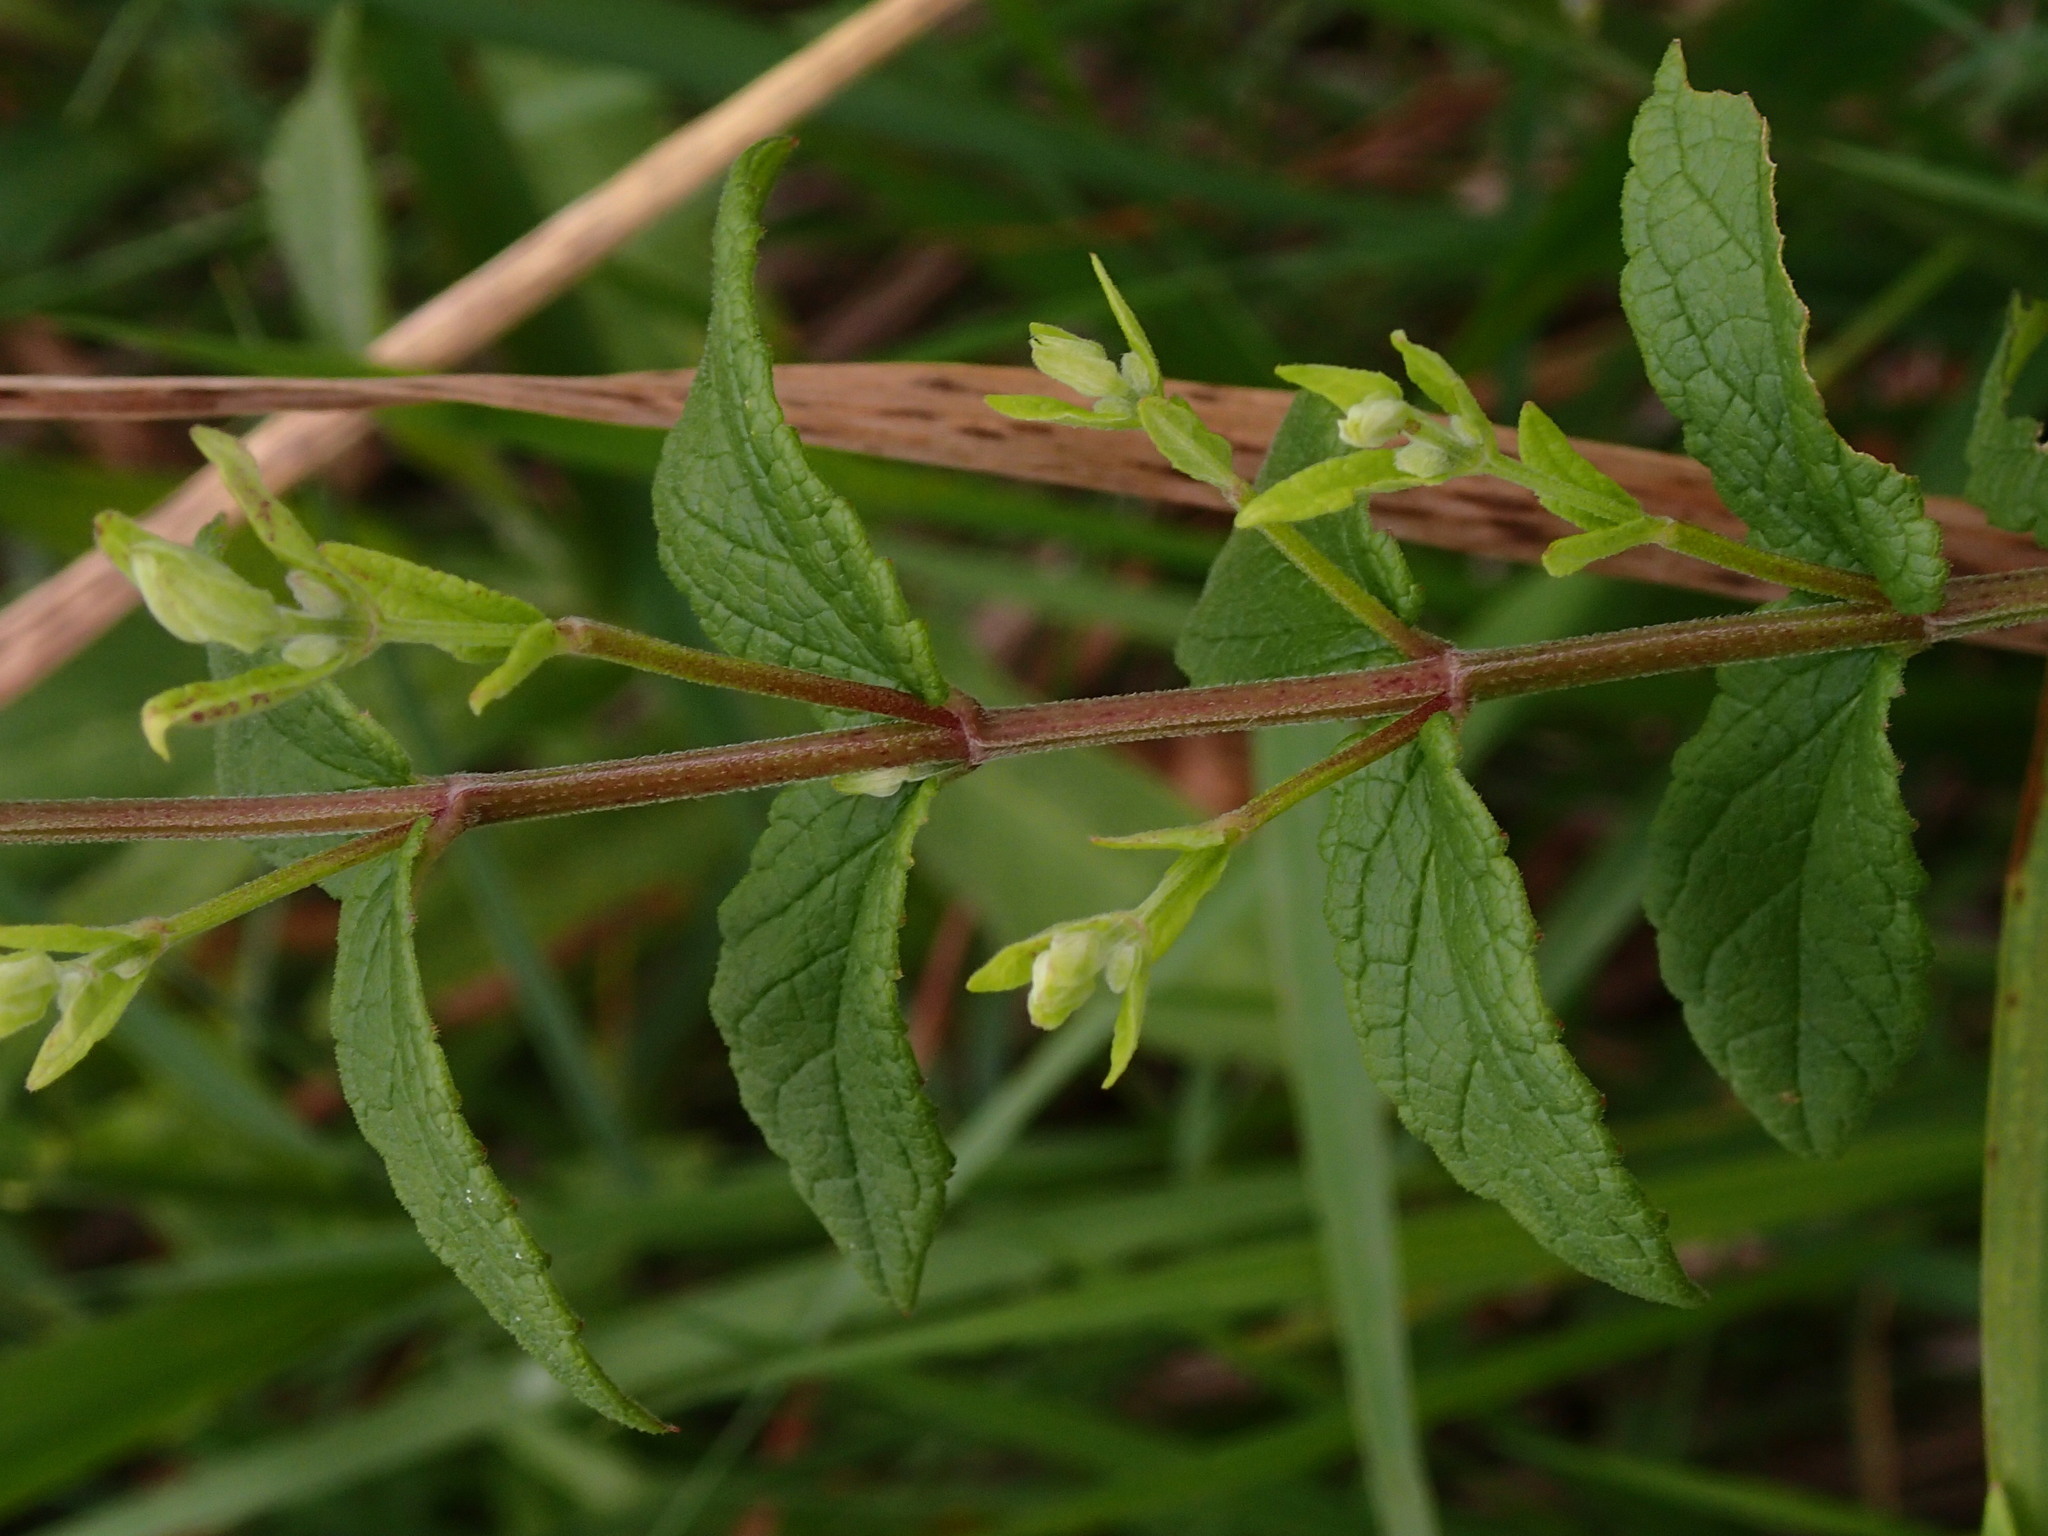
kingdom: Plantae
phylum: Tracheophyta
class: Magnoliopsida
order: Lamiales
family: Lamiaceae
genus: Scutellaria
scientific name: Scutellaria galericulata
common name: Skullcap
